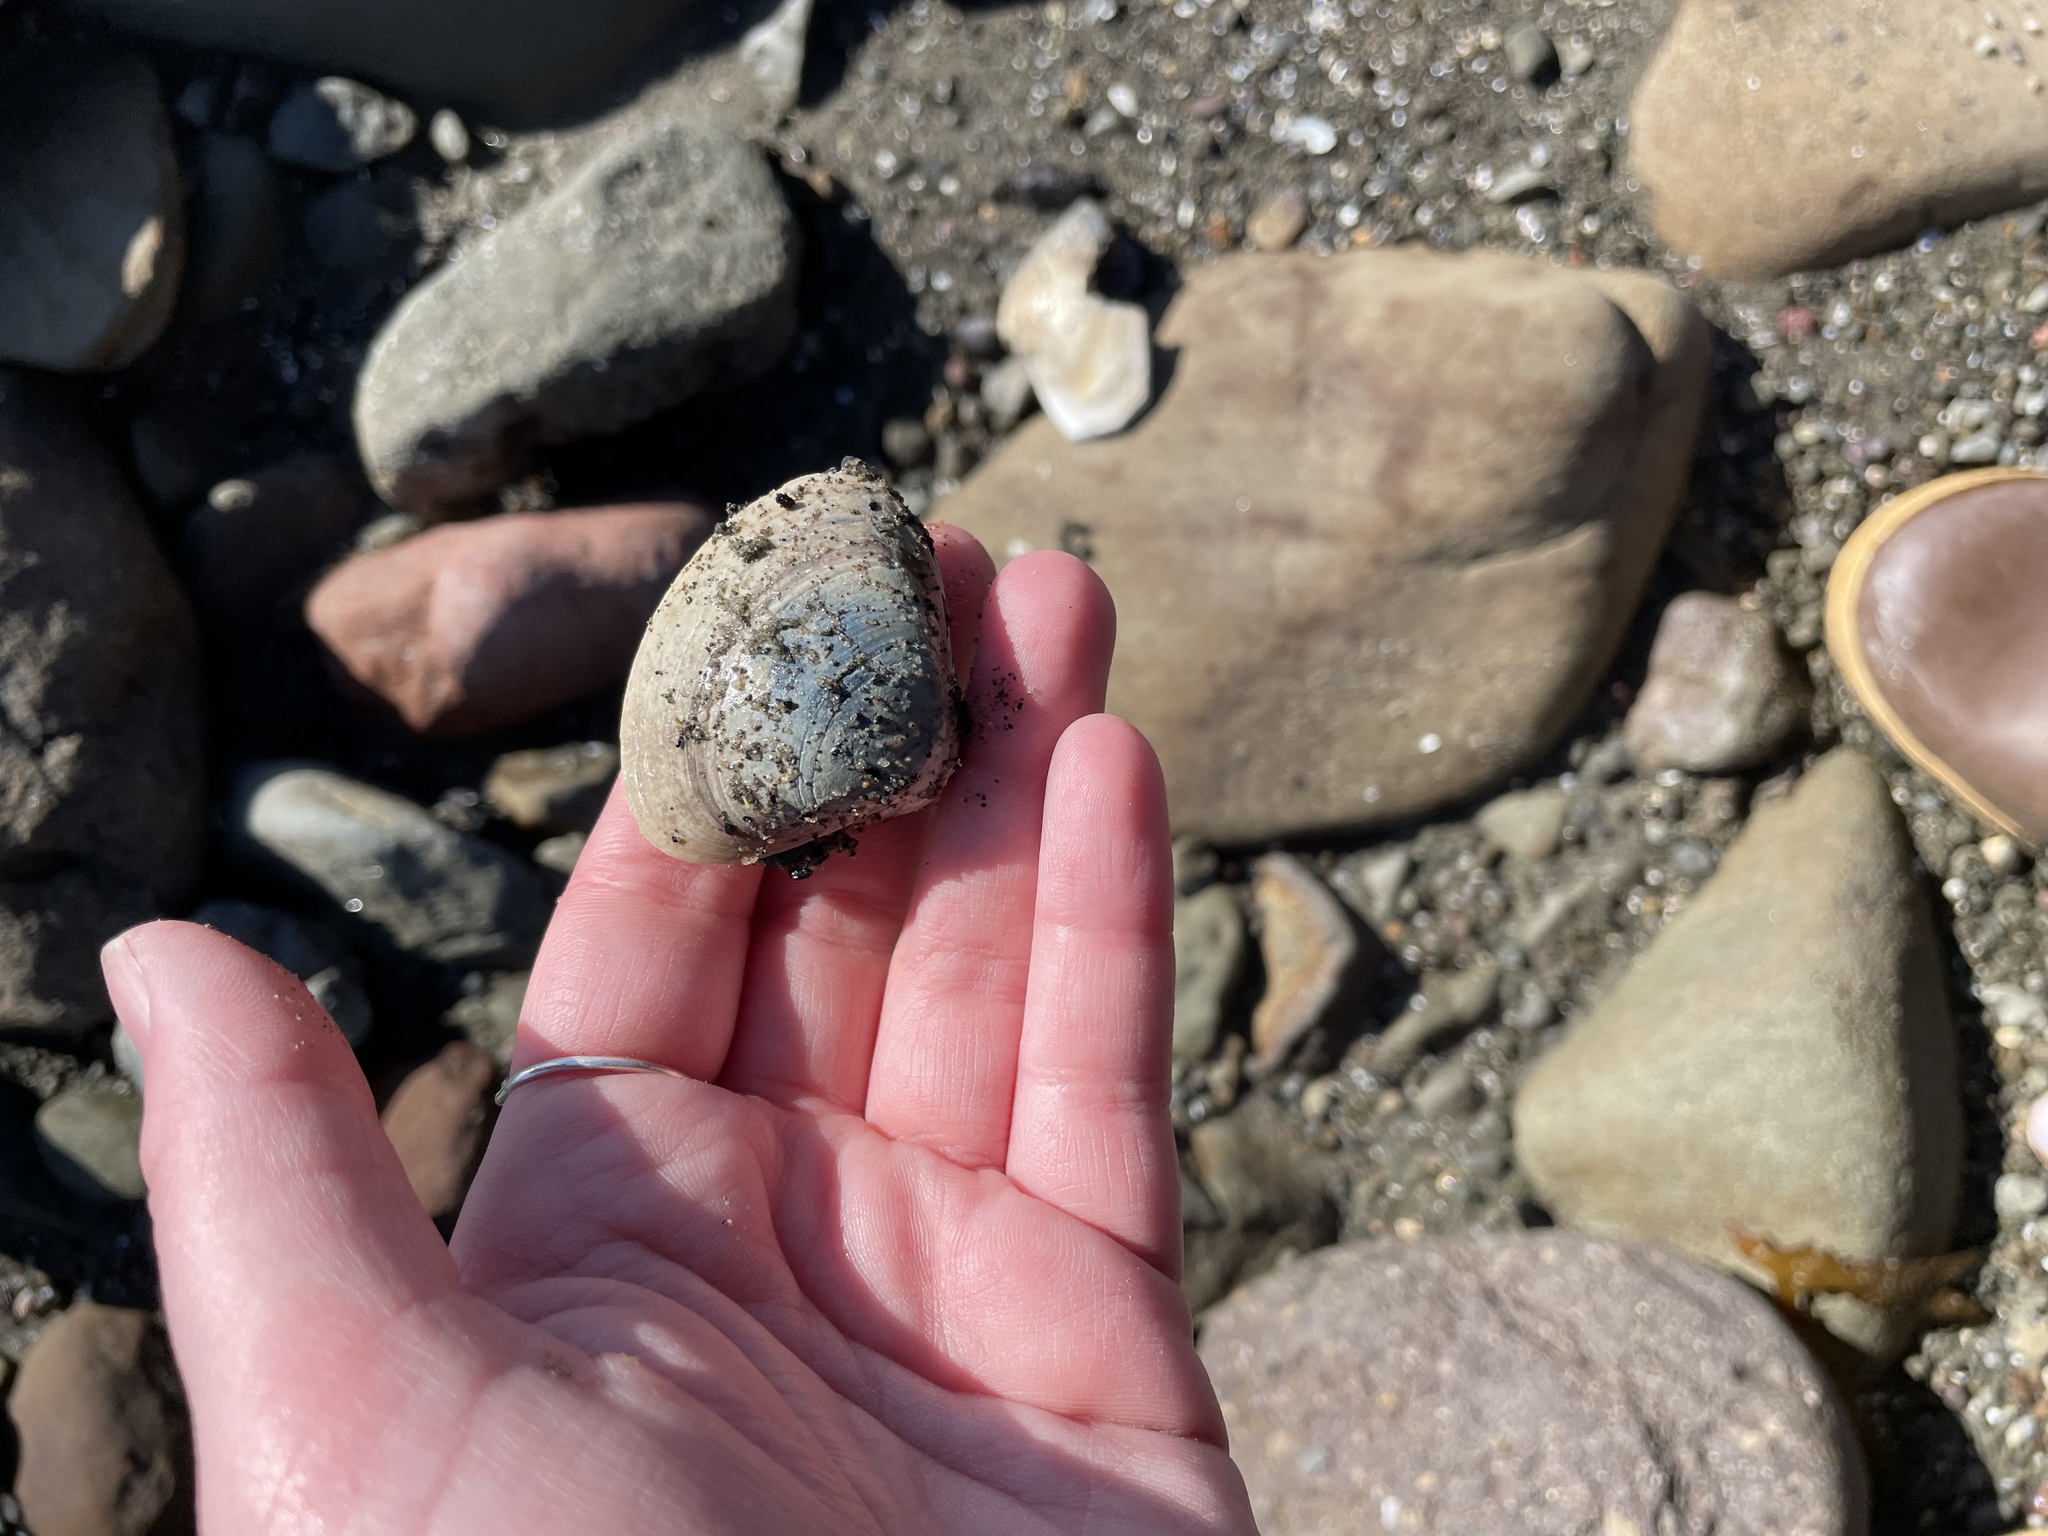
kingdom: Animalia
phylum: Mollusca
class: Bivalvia
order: Venerida
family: Mactridae
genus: Spisula
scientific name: Spisula solidissima
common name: Atlantic surf clam
